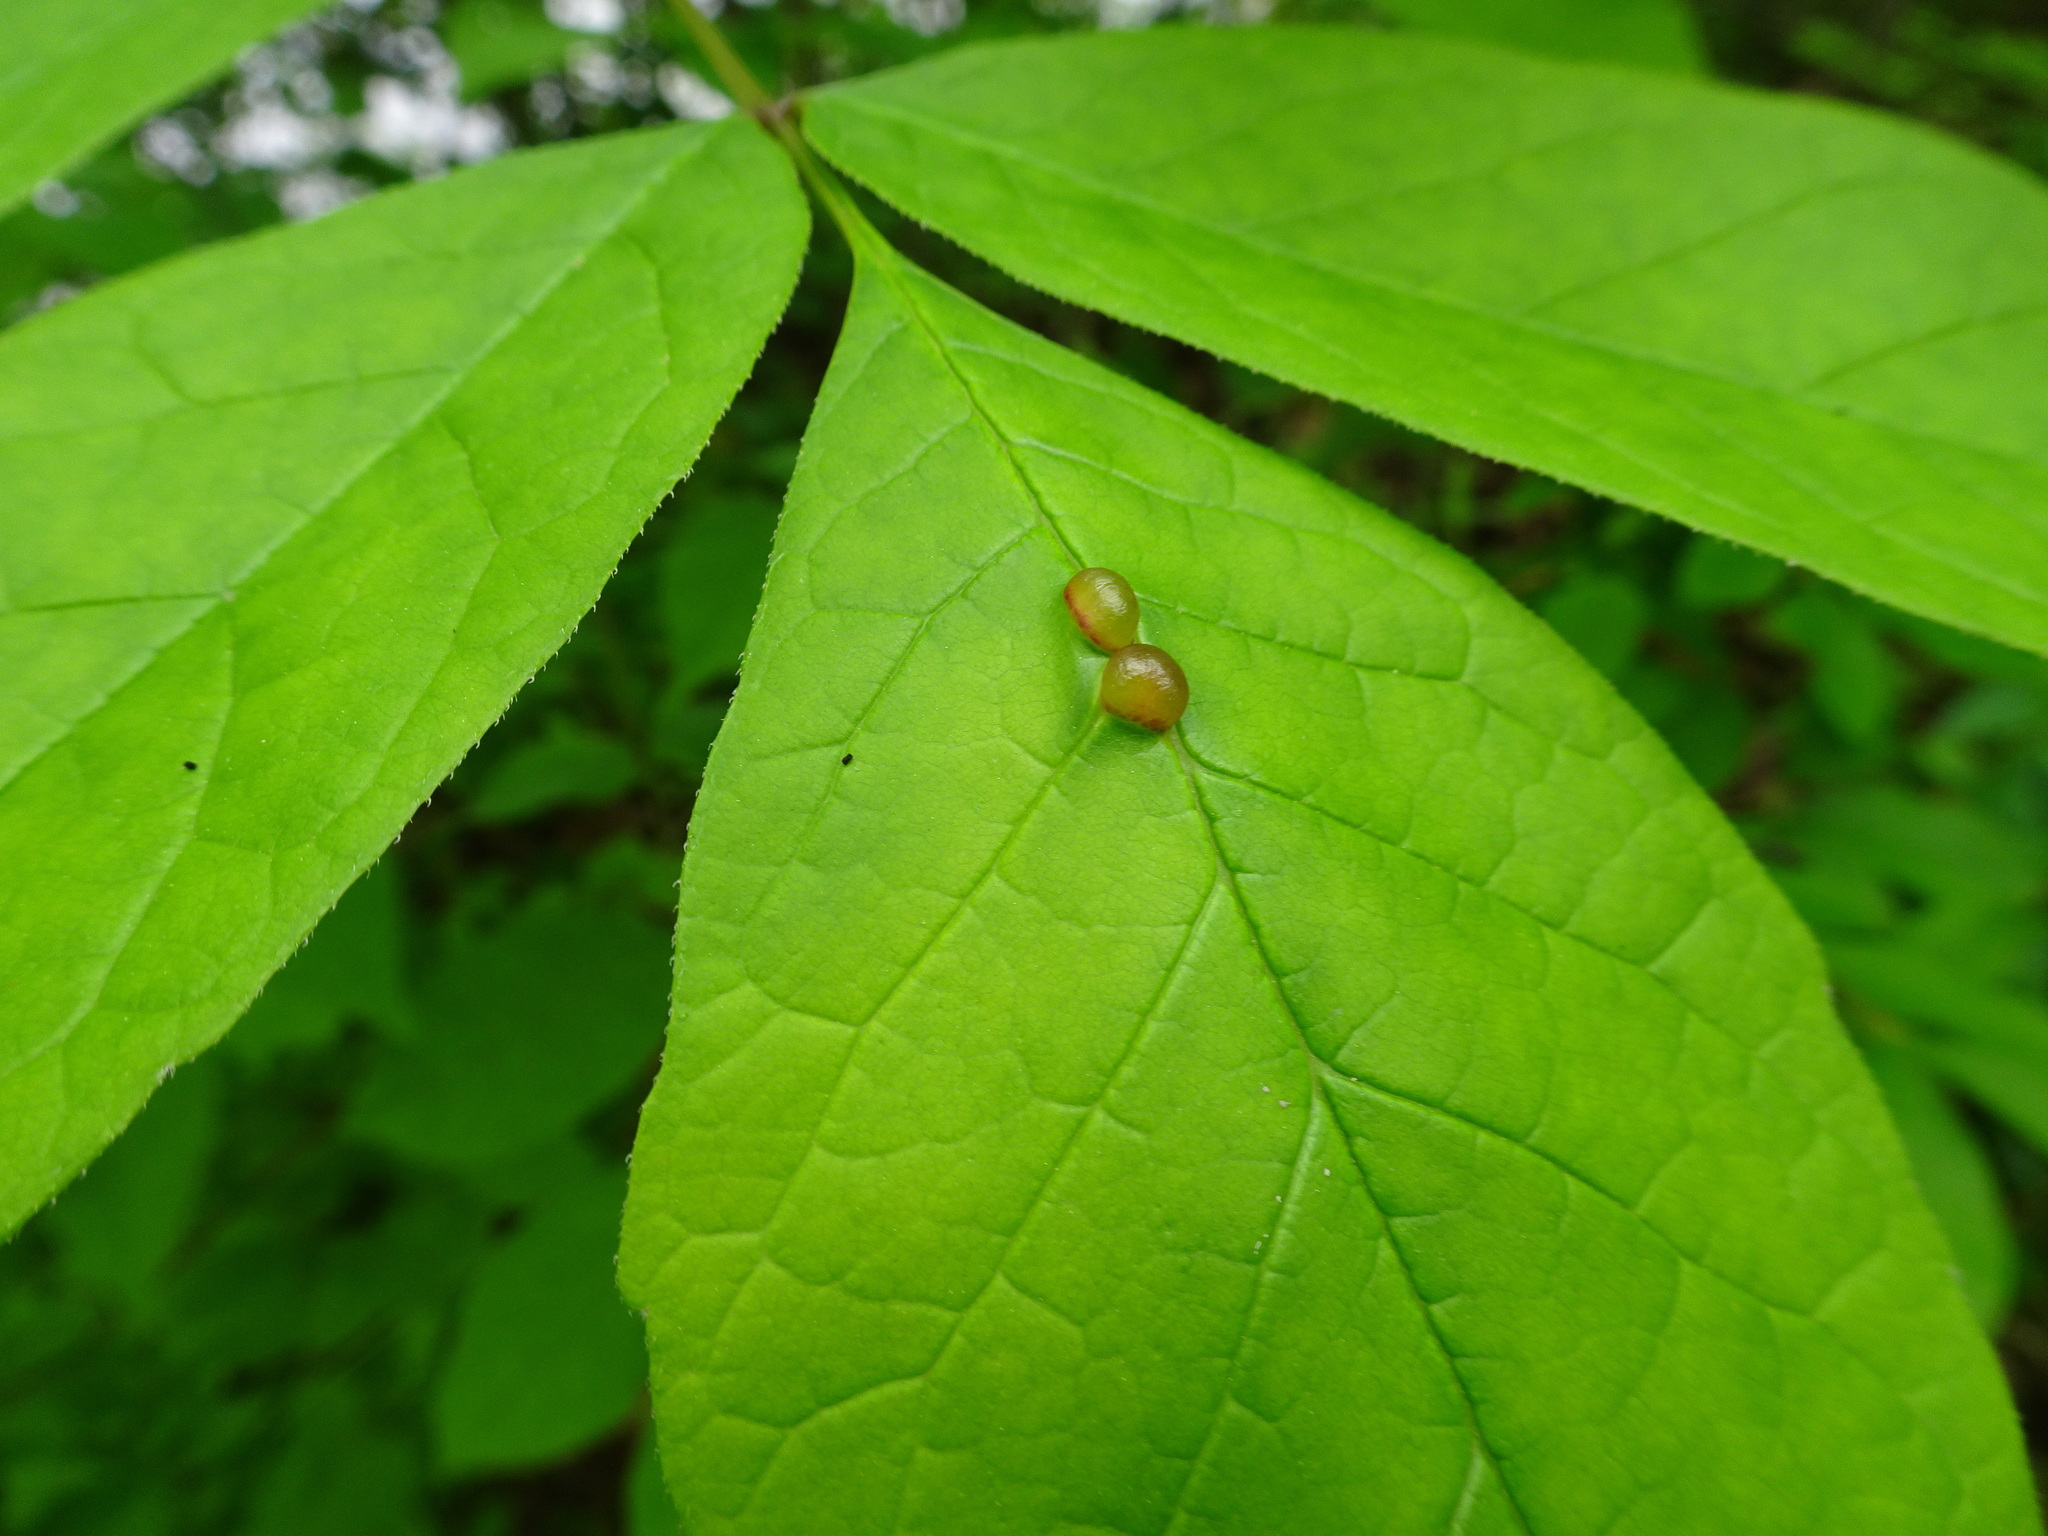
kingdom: Animalia
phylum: Arthropoda
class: Insecta
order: Diptera
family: Cecidomyiidae
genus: Dasineura
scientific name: Dasineura pellex
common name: Ash bullet gall midge
